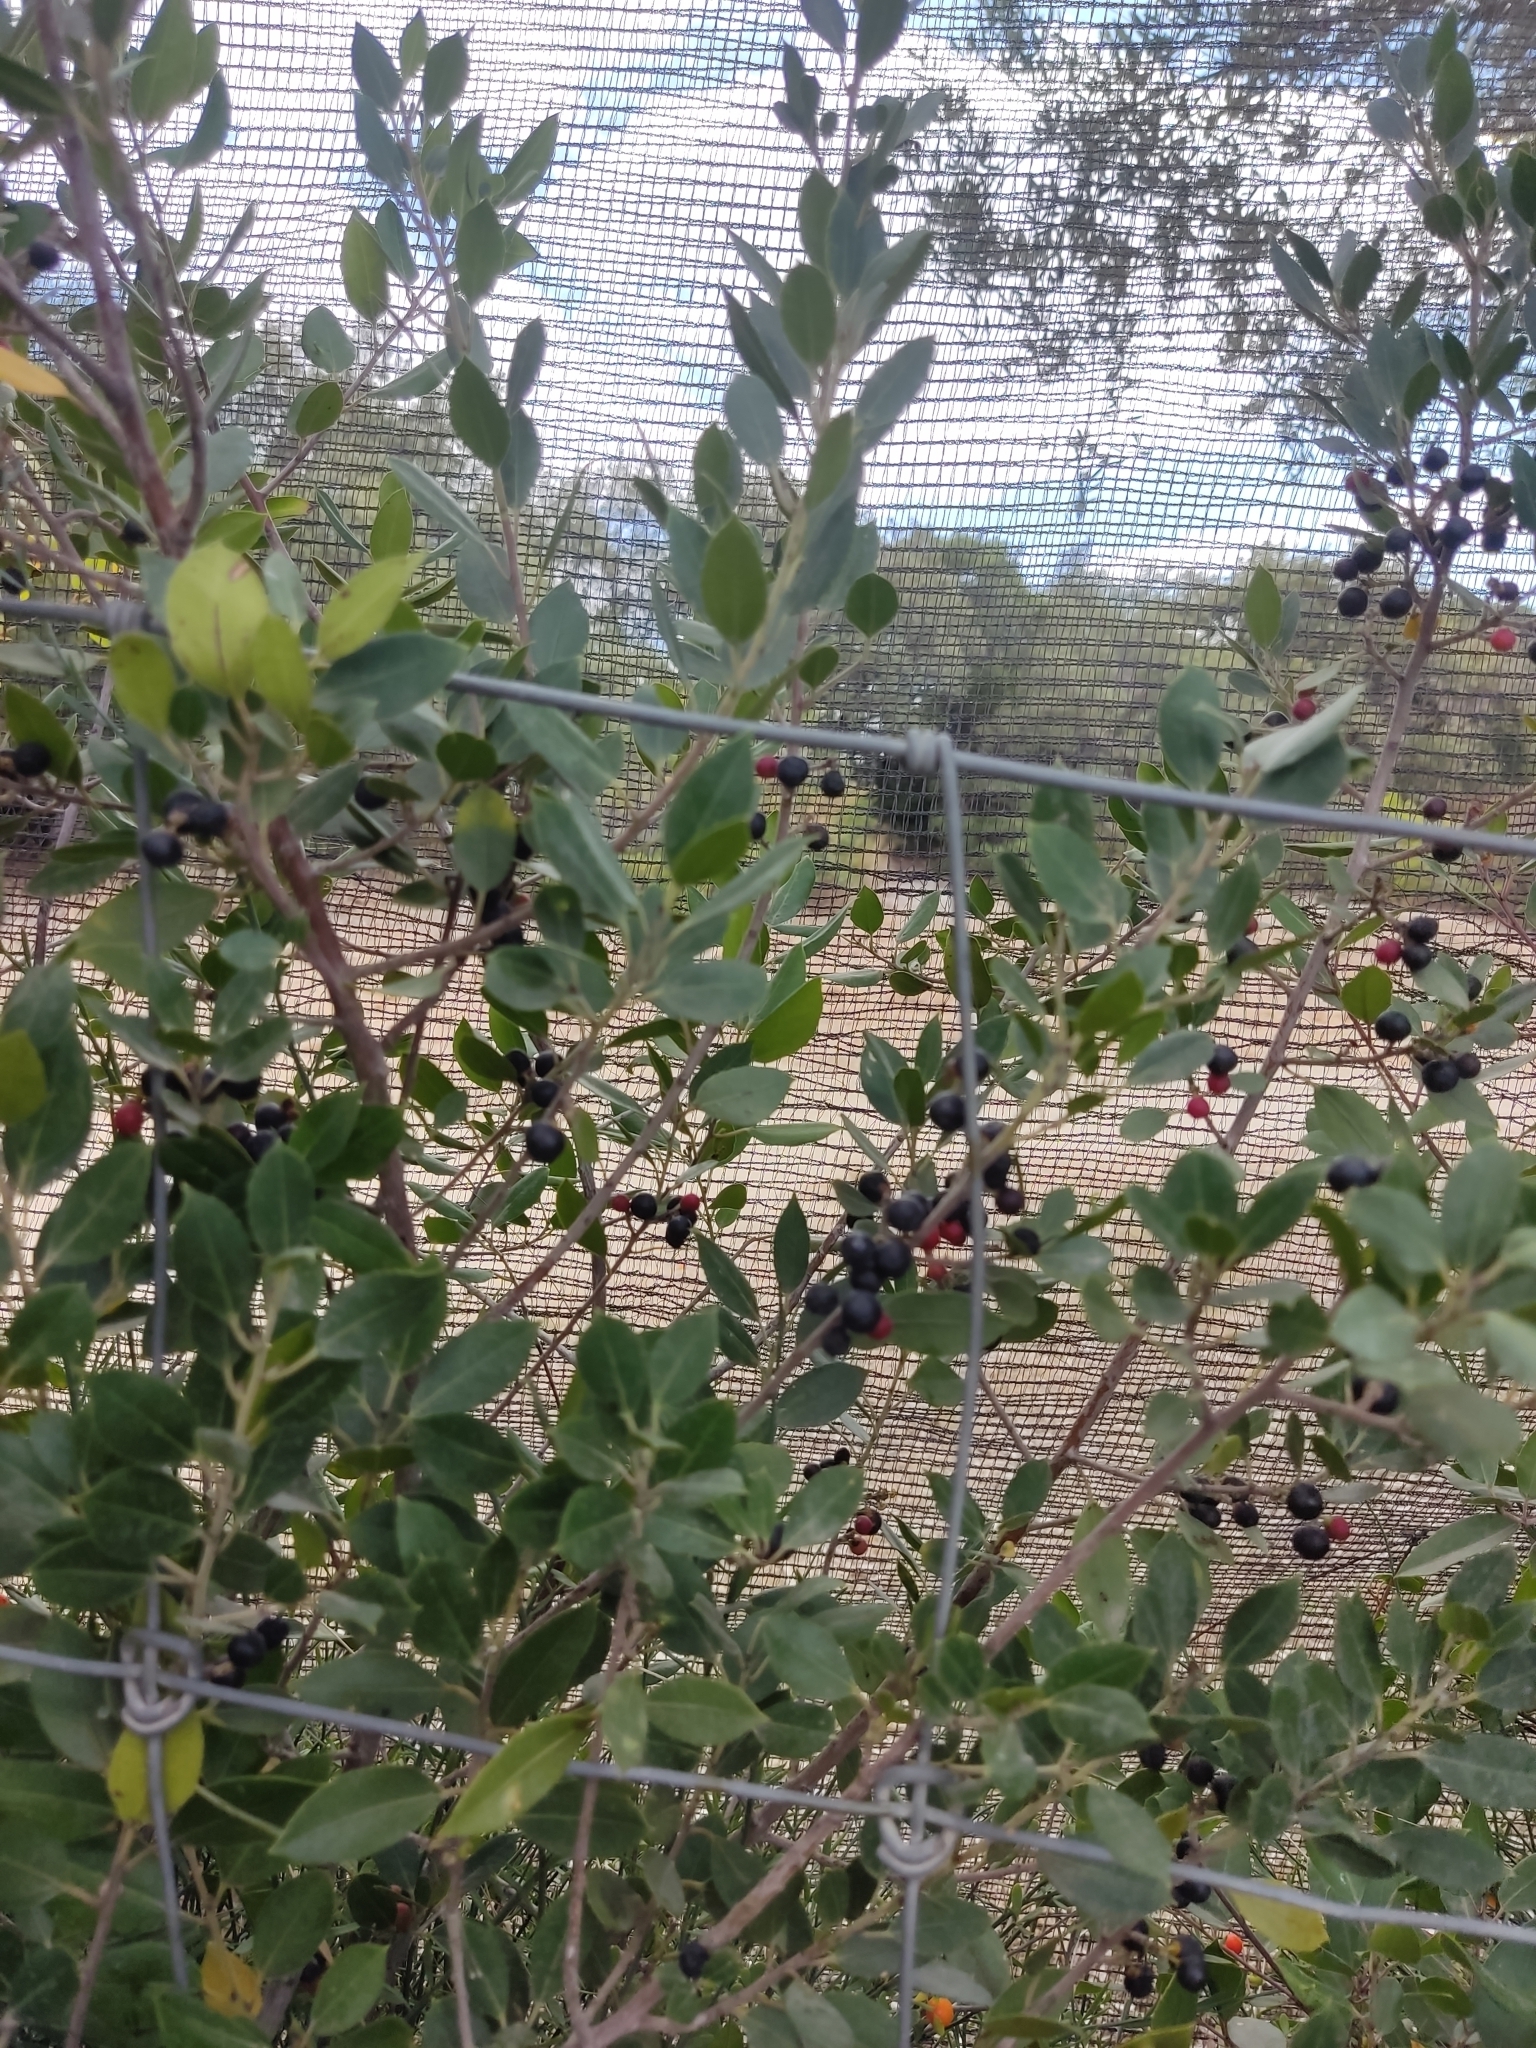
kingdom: Plantae
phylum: Tracheophyta
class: Magnoliopsida
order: Rosales
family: Rhamnaceae
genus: Rhamnus
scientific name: Rhamnus alaternus
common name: Mediterranean buckthorn
